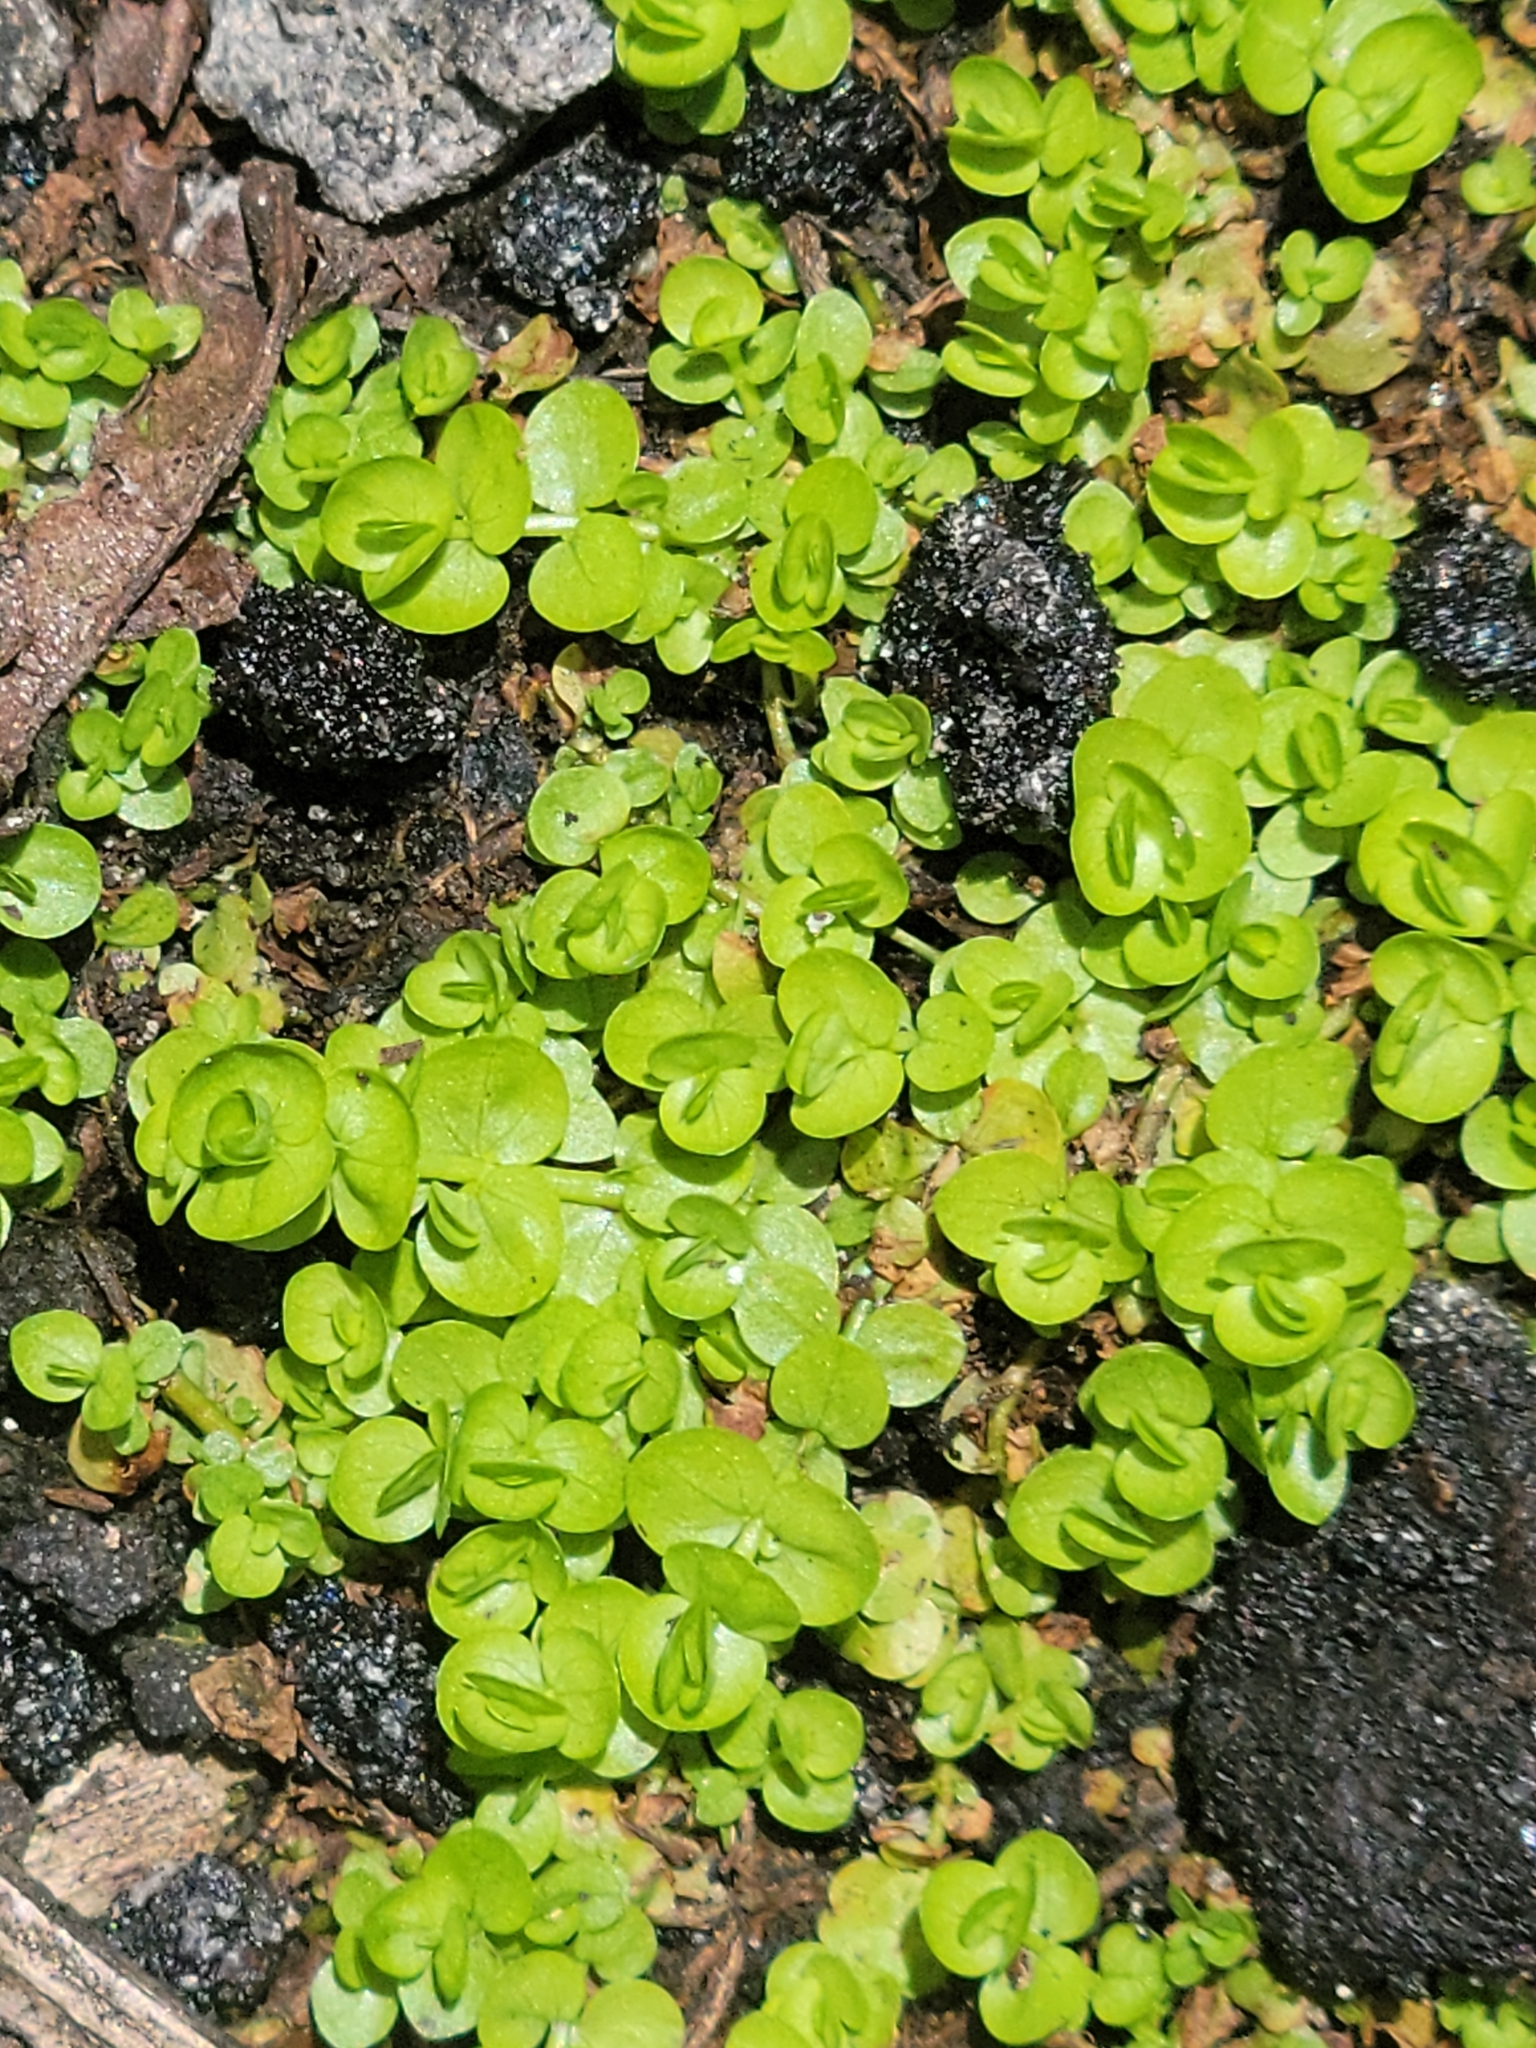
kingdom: Plantae
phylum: Tracheophyta
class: Magnoliopsida
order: Lamiales
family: Linderniaceae
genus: Micranthemum
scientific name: Micranthemum umbrosum
